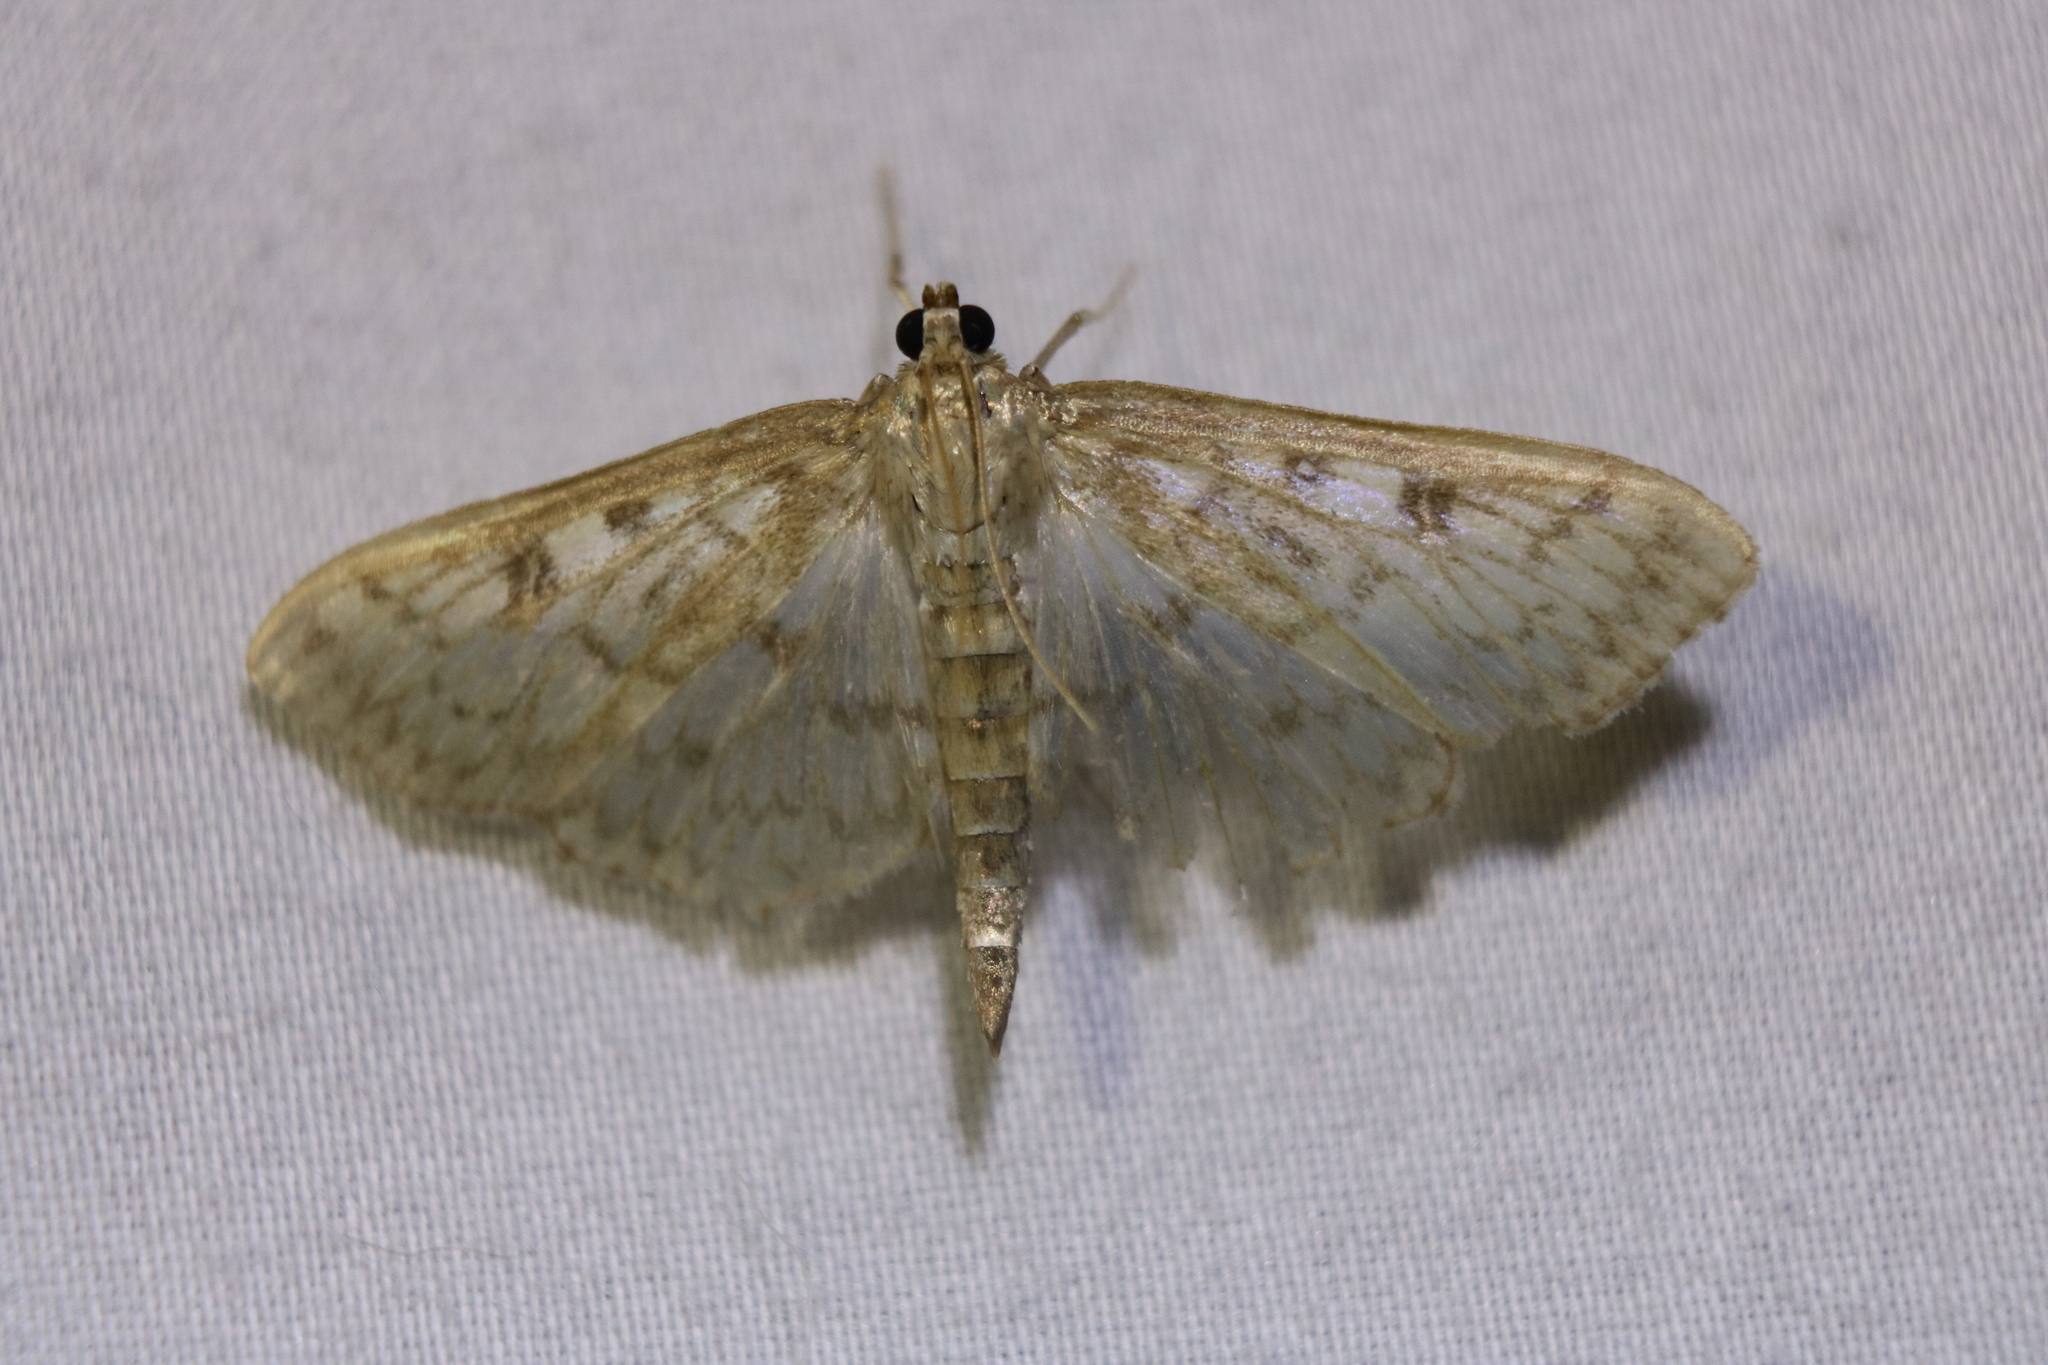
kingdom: Animalia
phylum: Arthropoda
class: Insecta
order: Lepidoptera
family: Crambidae
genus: Herpetogramma
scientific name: Herpetogramma aquilonalis
